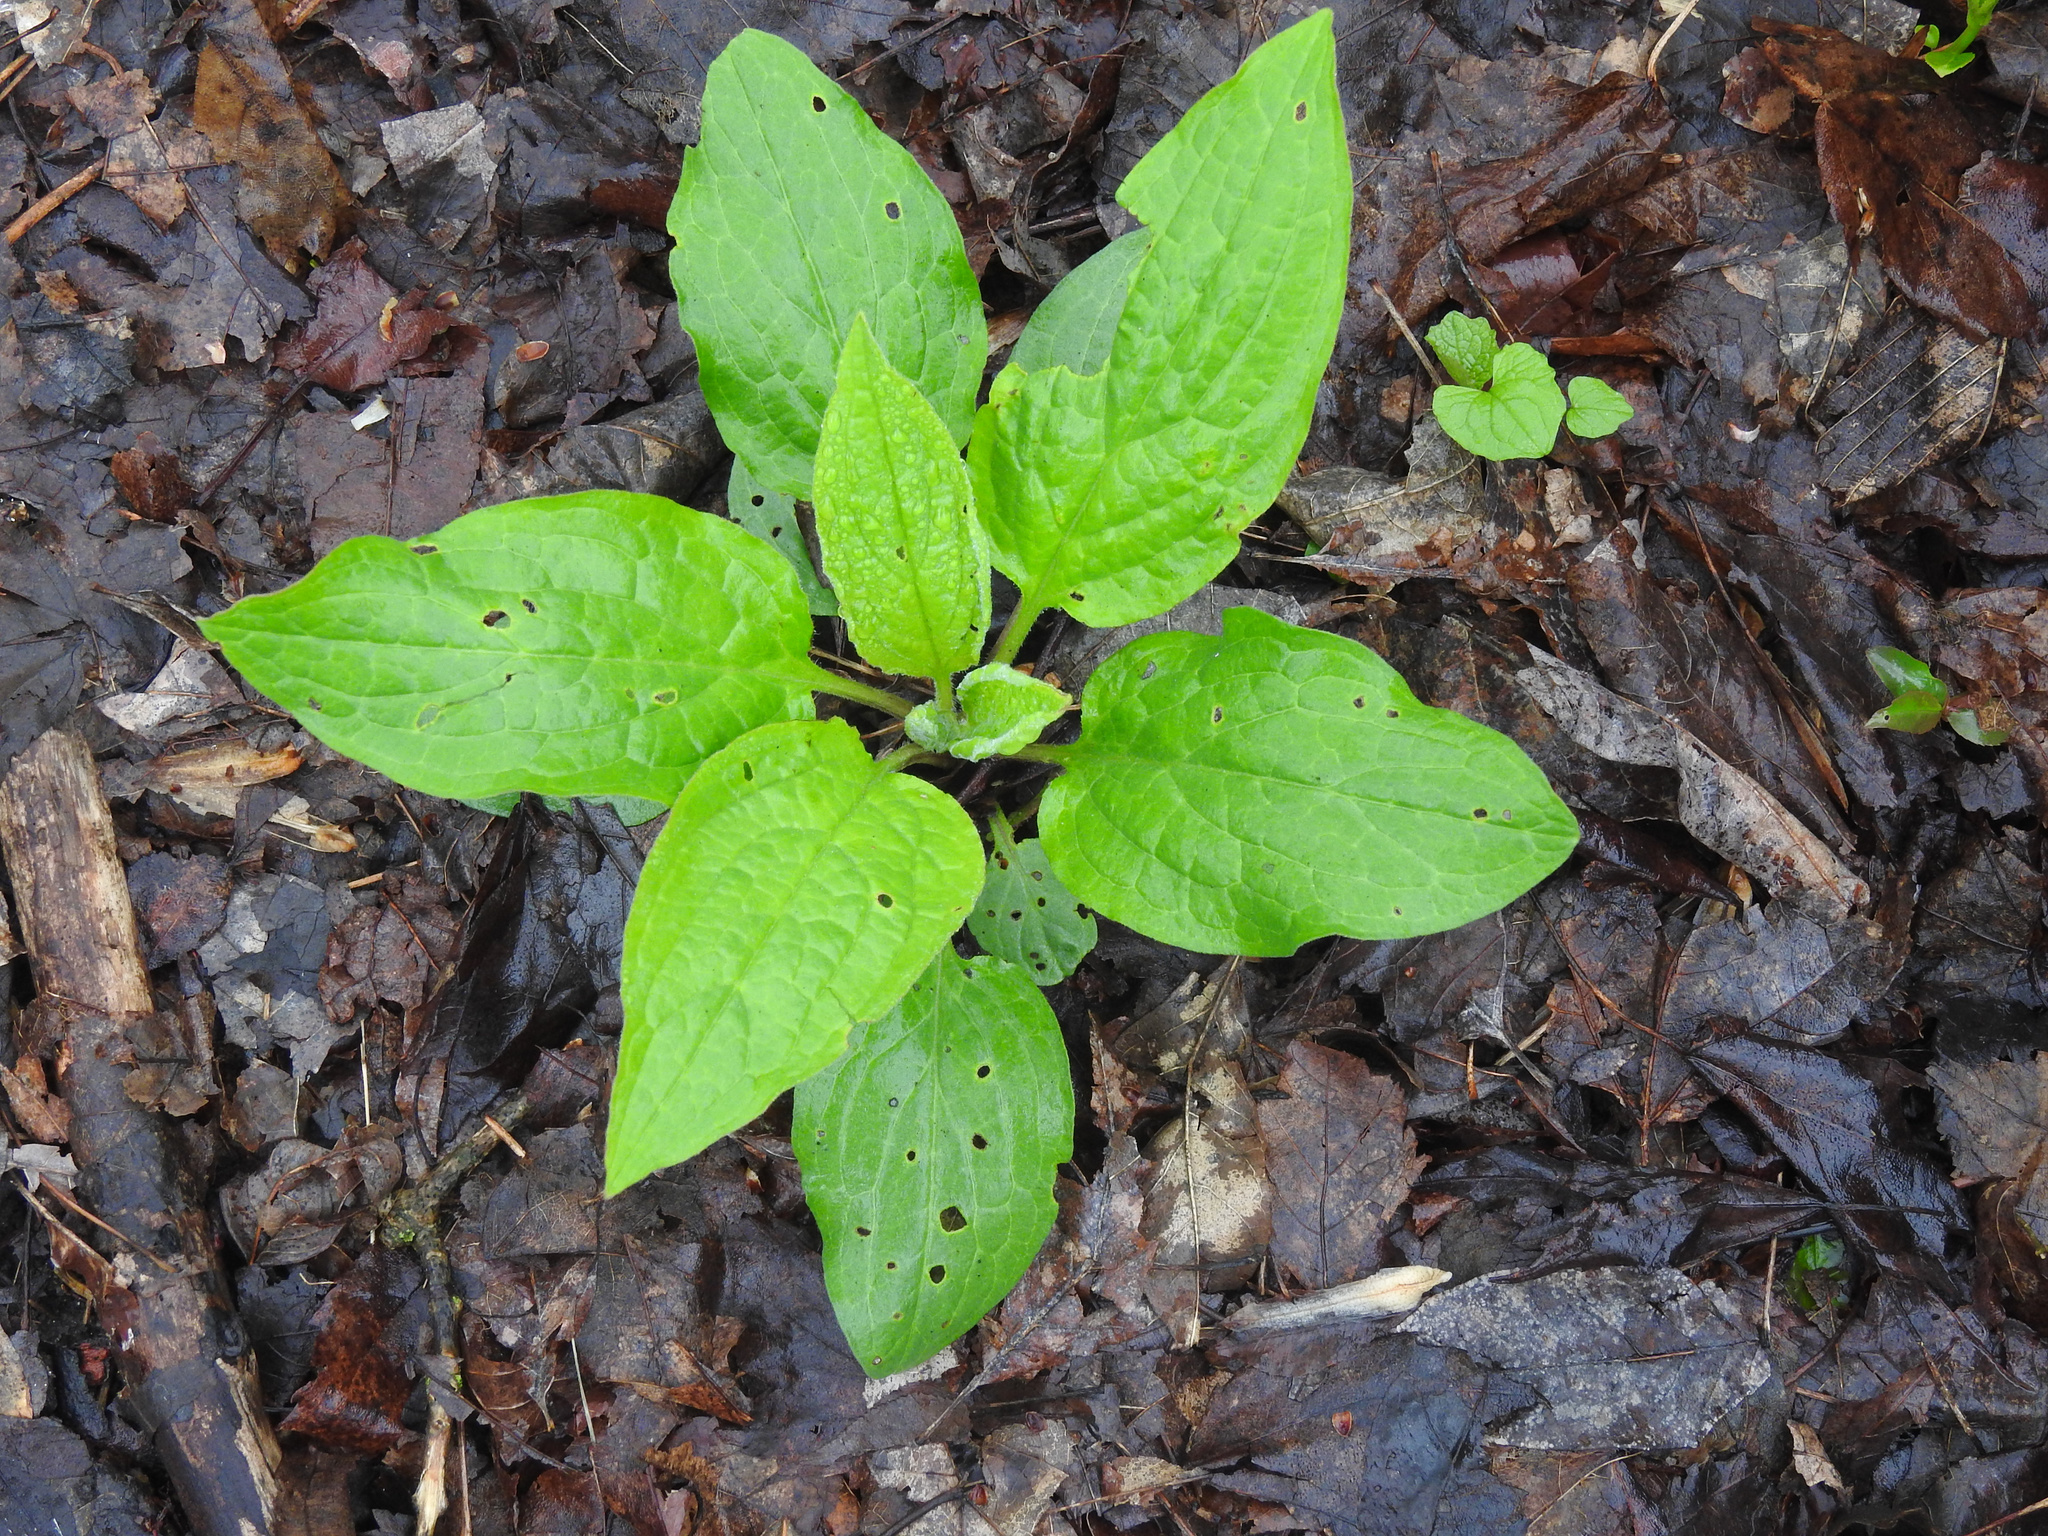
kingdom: Plantae
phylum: Tracheophyta
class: Magnoliopsida
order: Boraginales
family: Boraginaceae
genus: Hackelia
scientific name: Hackelia virginiana
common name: Beggar's-lice
